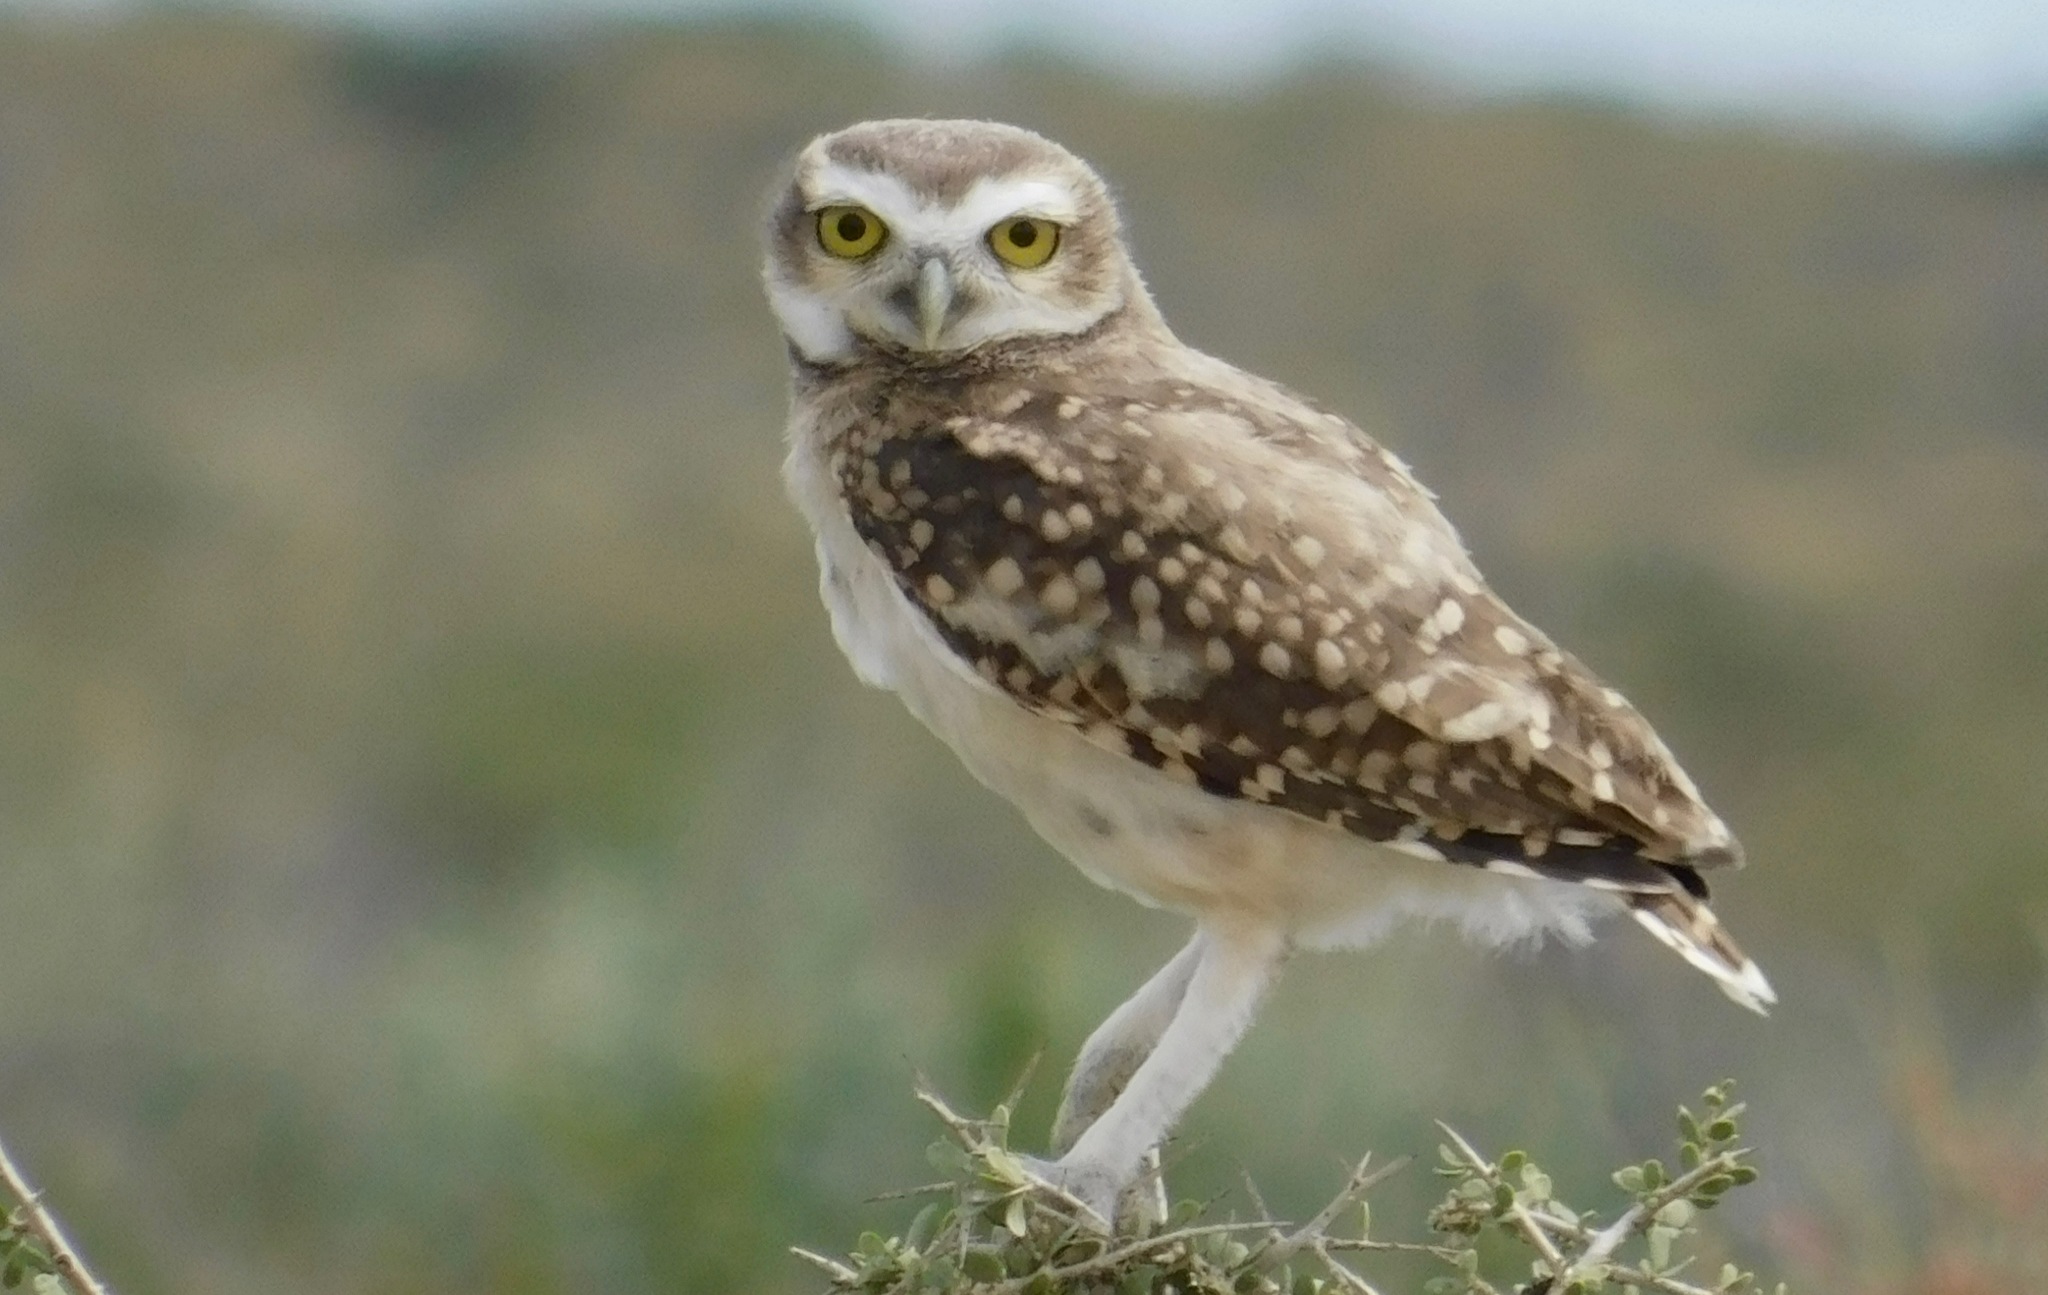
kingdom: Animalia
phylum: Chordata
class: Aves
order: Strigiformes
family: Strigidae
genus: Athene
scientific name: Athene cunicularia
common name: Burrowing owl
